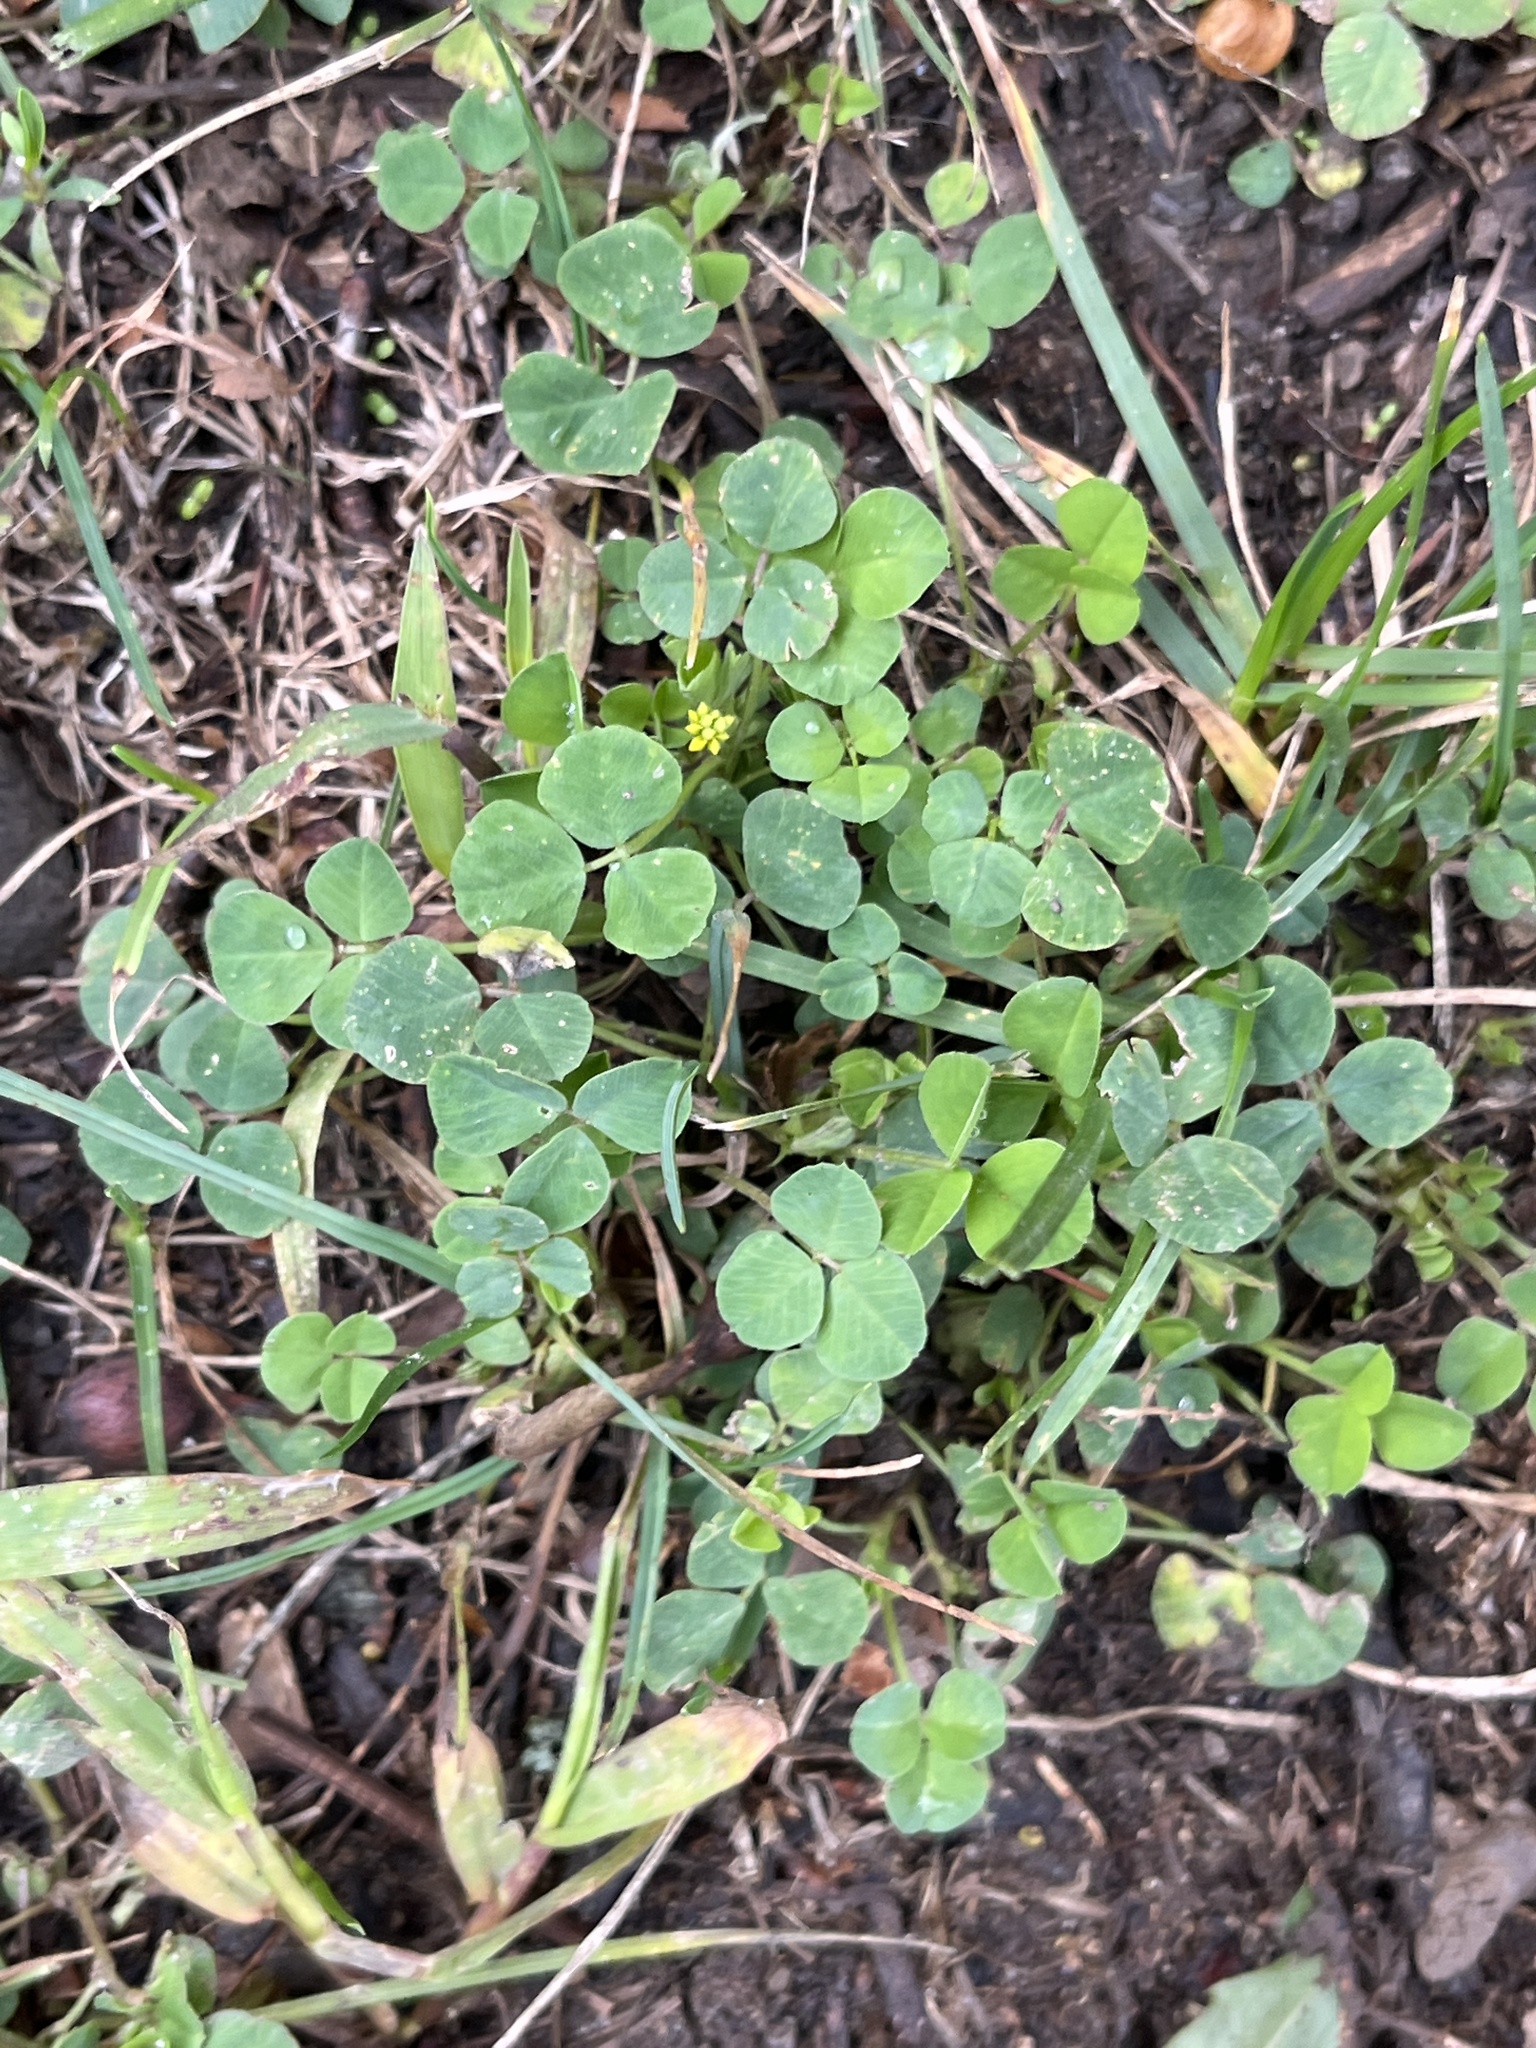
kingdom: Plantae
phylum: Tracheophyta
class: Magnoliopsida
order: Fabales
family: Fabaceae
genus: Medicago
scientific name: Medicago lupulina
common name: Black medick
